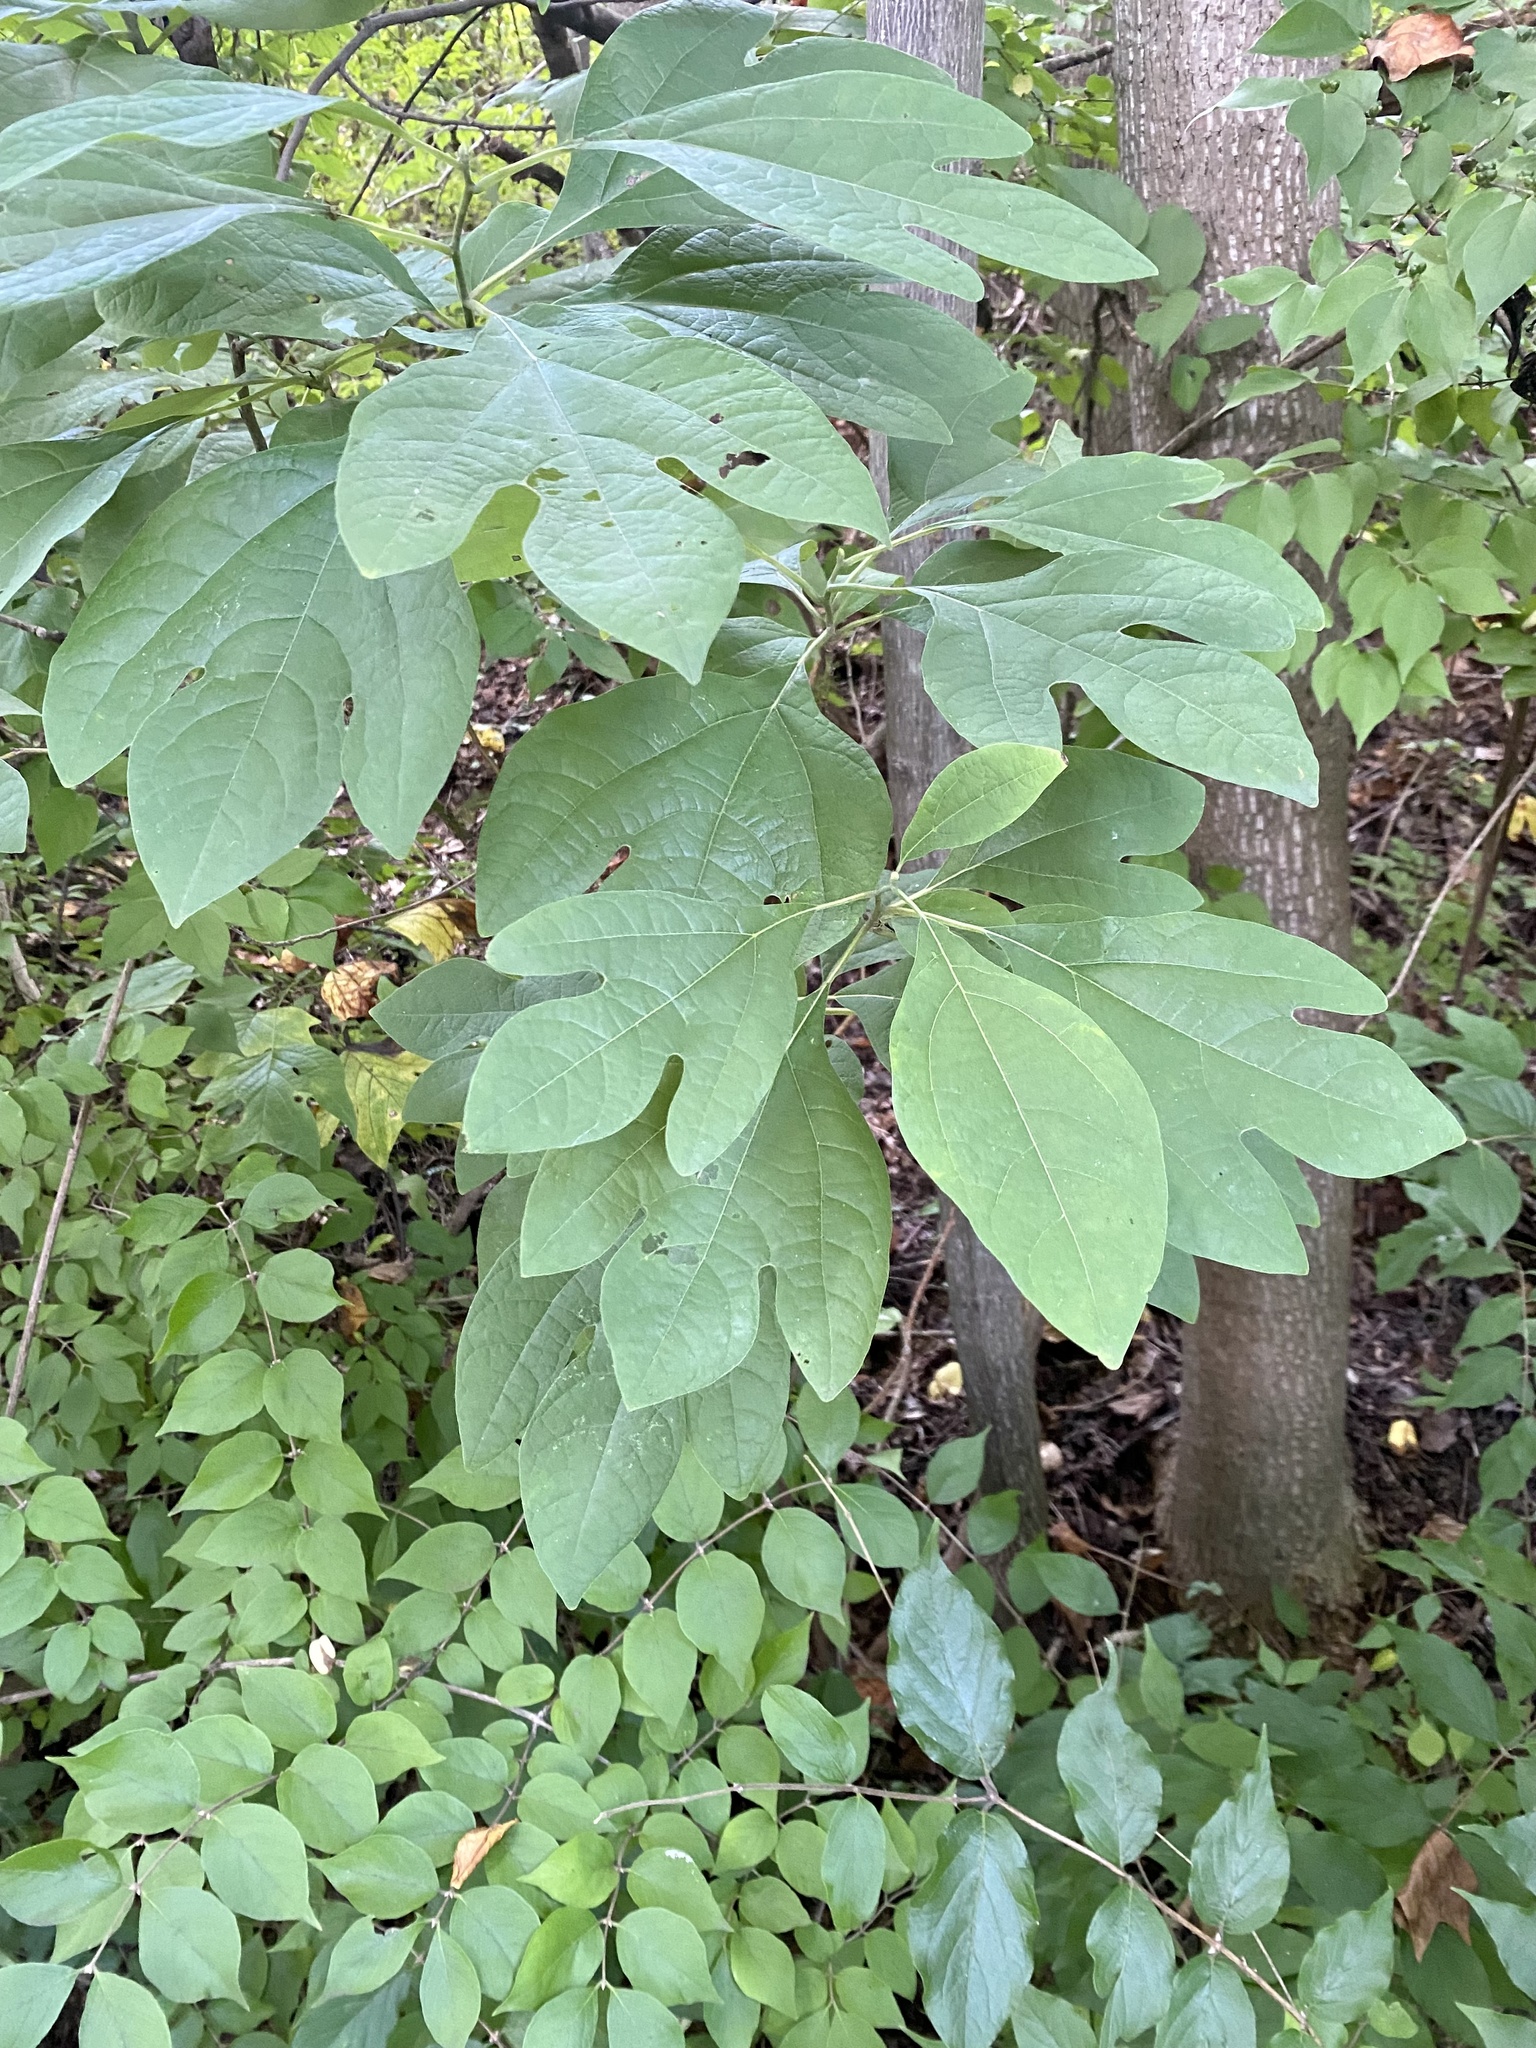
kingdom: Plantae
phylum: Tracheophyta
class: Magnoliopsida
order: Laurales
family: Lauraceae
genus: Sassafras
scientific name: Sassafras albidum
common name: Sassafras
